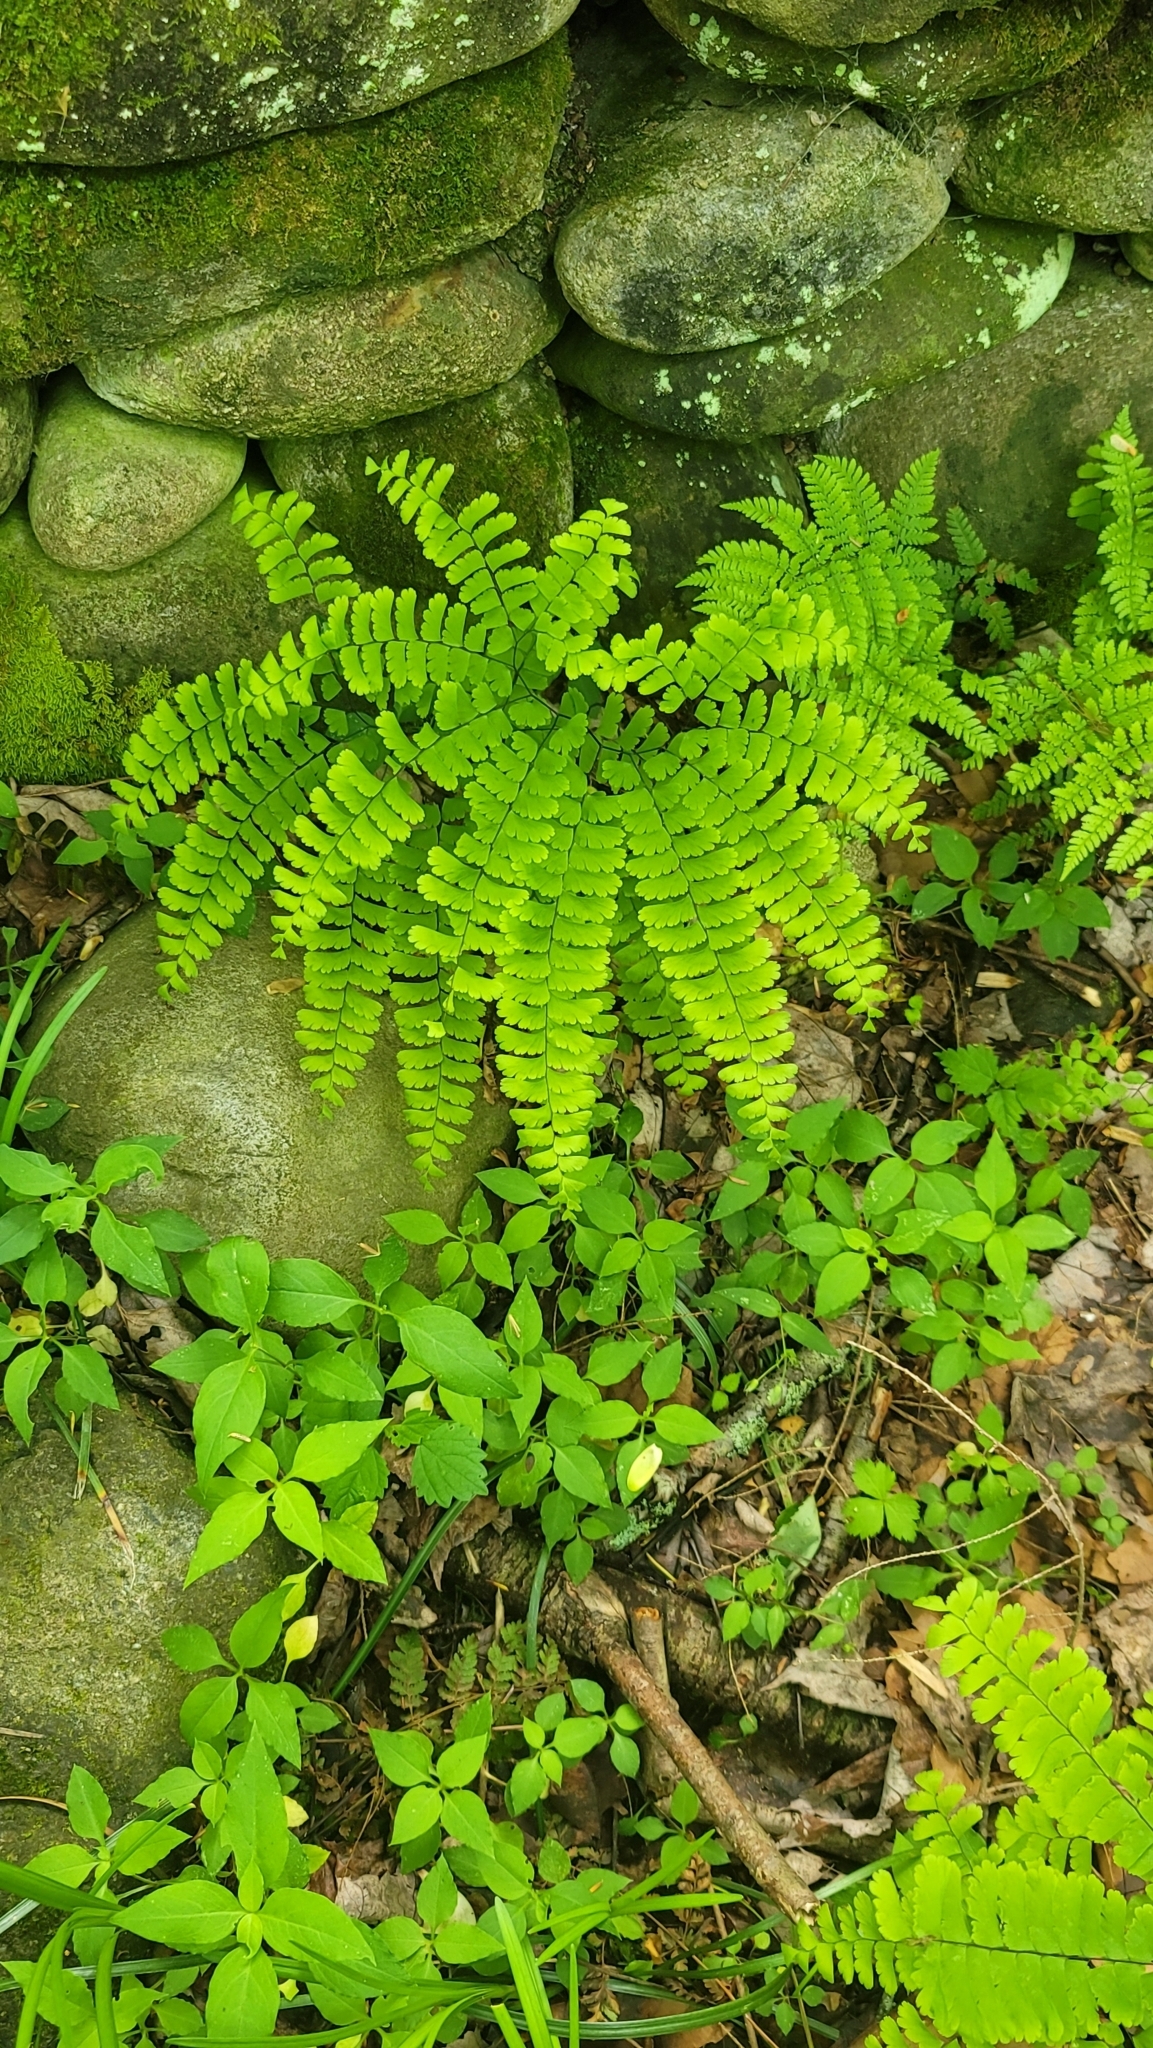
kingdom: Plantae
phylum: Tracheophyta
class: Polypodiopsida
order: Polypodiales
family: Pteridaceae
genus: Adiantum
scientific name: Adiantum pedatum
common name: Five-finger fern
